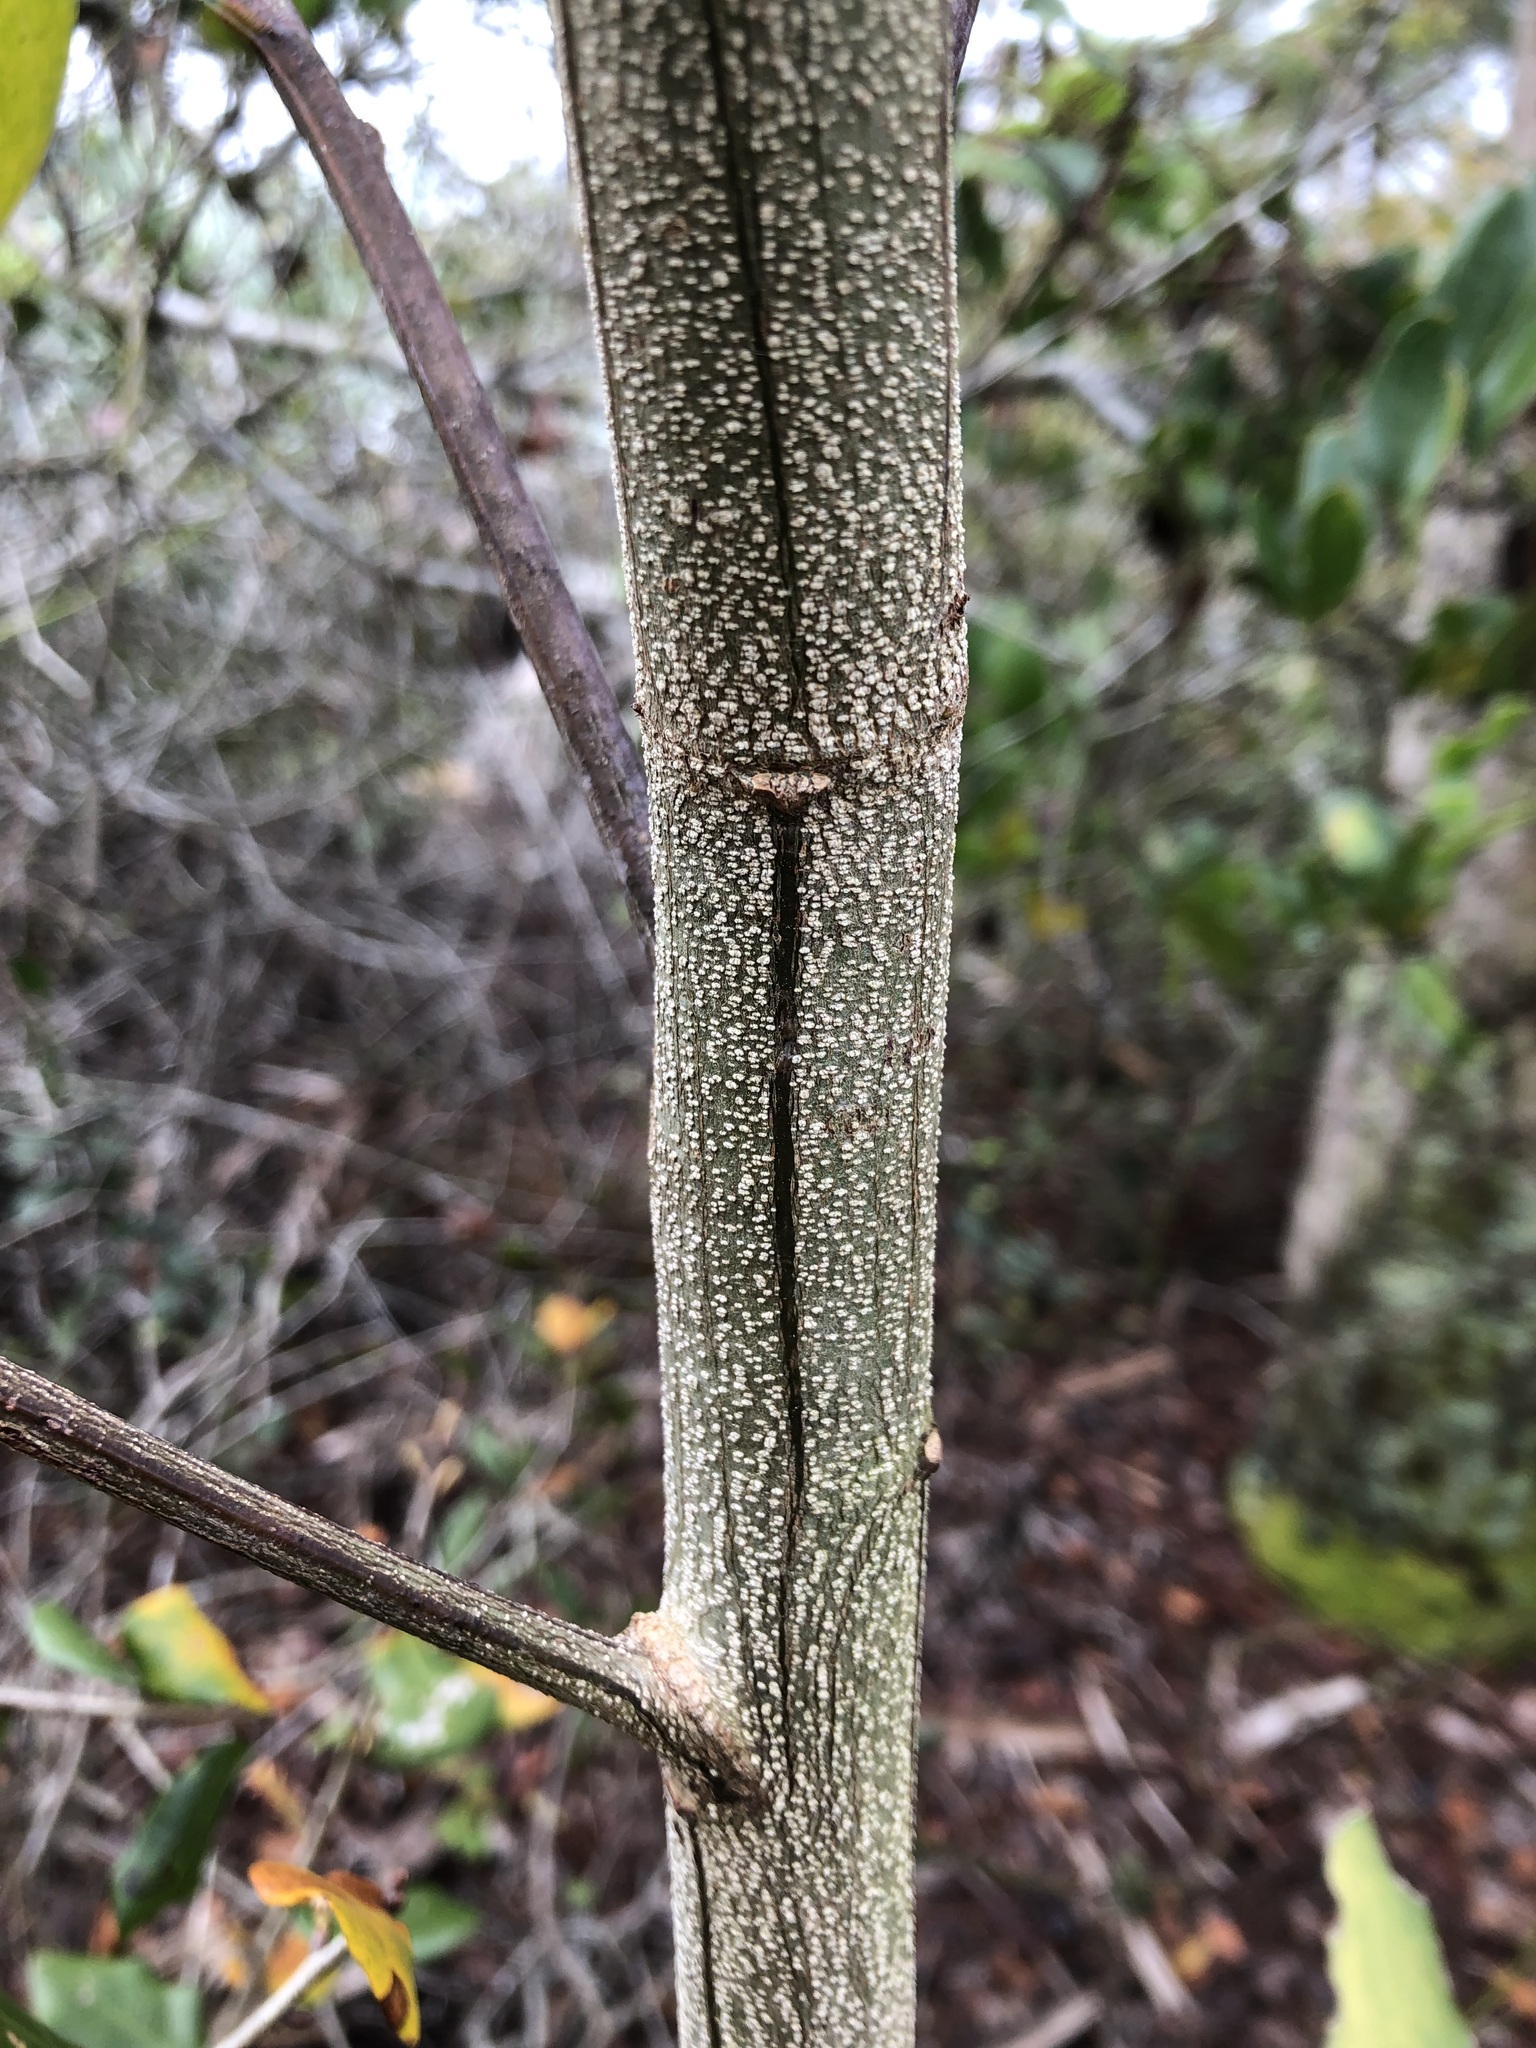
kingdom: Plantae
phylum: Tracheophyta
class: Magnoliopsida
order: Fabales
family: Fabaceae
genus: Acacia
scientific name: Acacia auriculiformis
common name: Earleaf acacia
